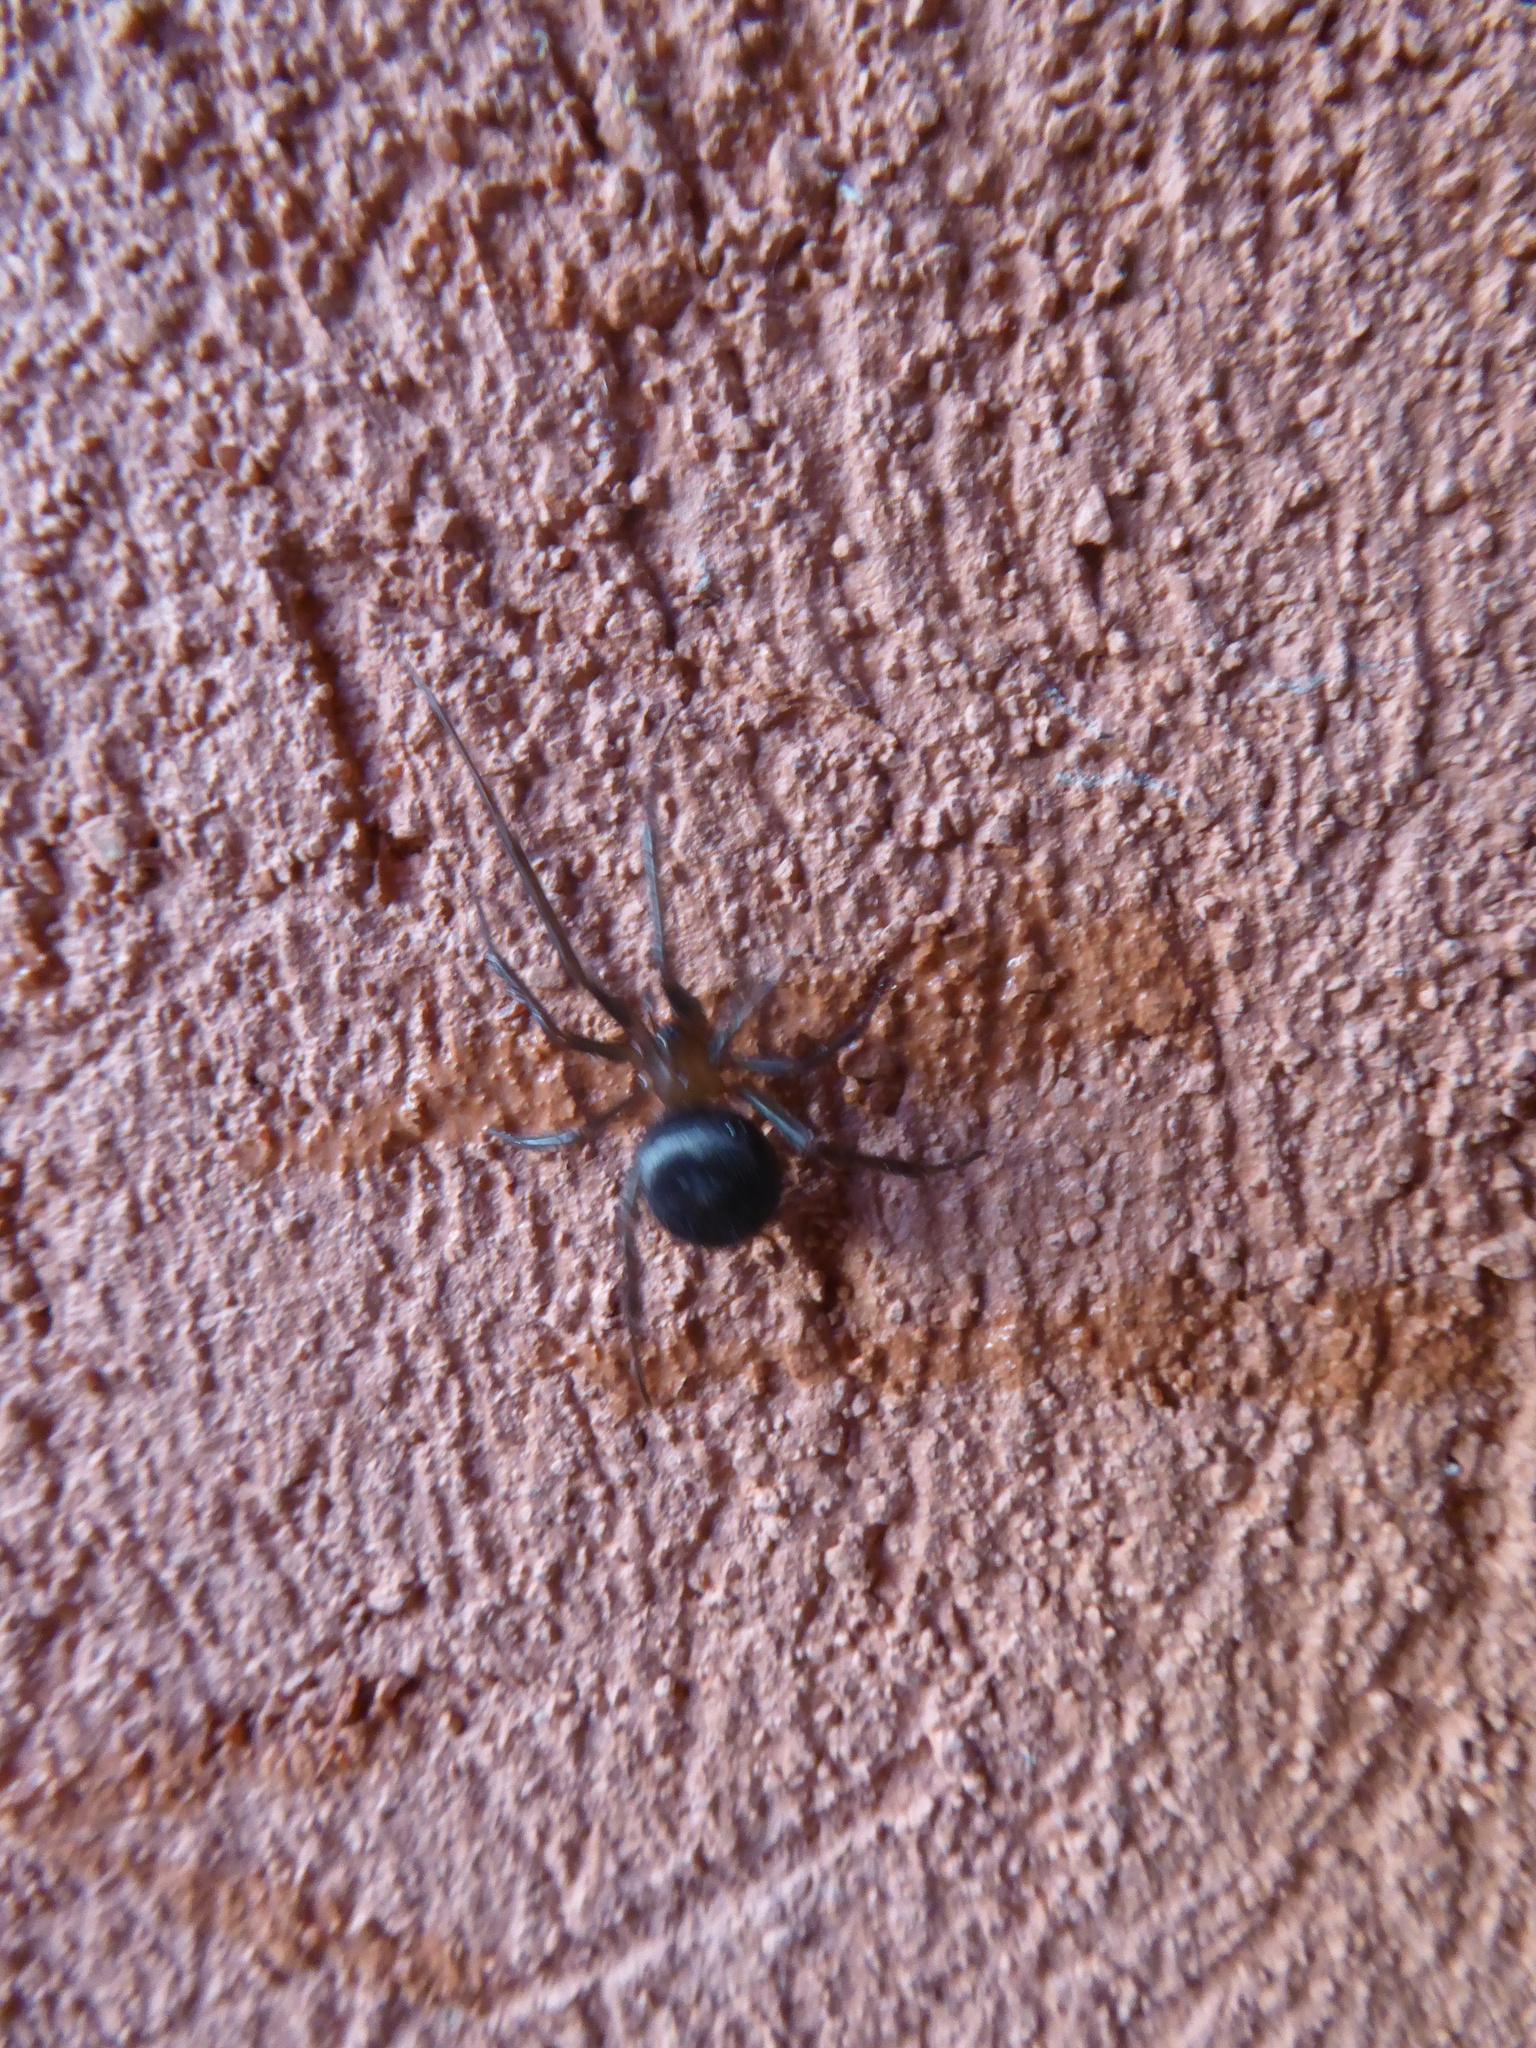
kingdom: Animalia
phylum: Arthropoda
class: Arachnida
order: Araneae
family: Theridiidae
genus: Steatoda
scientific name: Steatoda grossa
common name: False black widow
